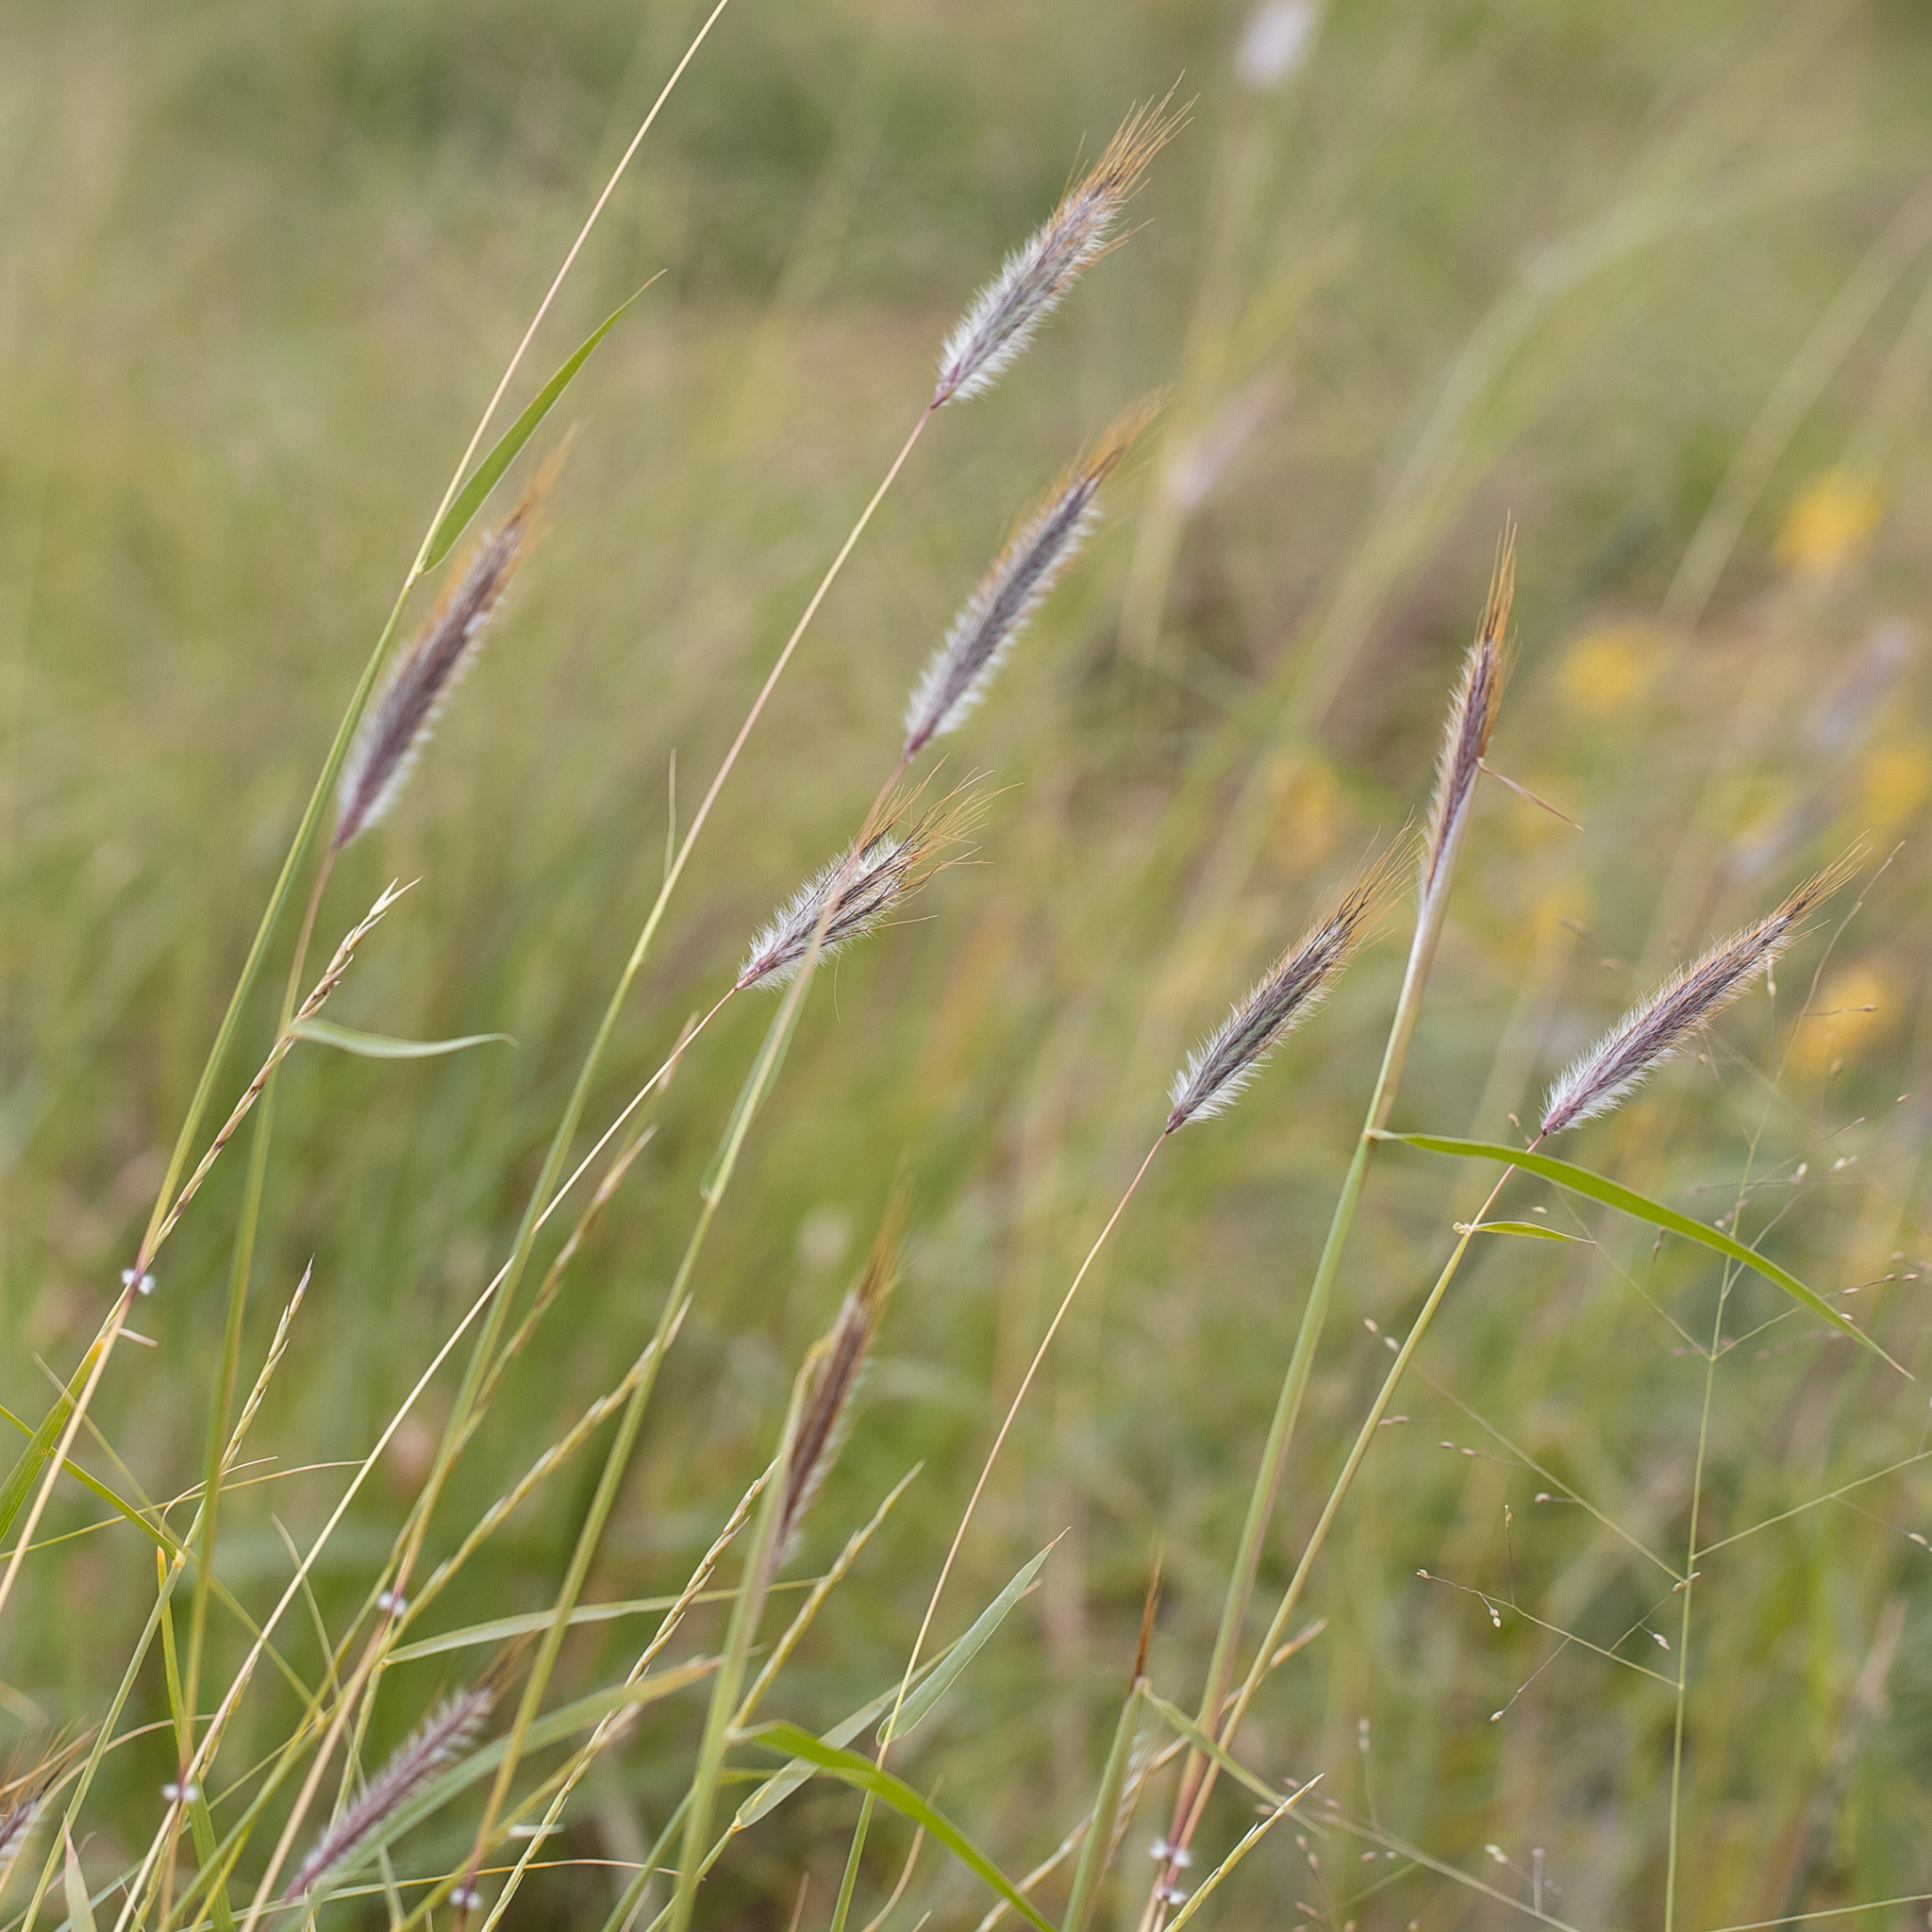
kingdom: Plantae
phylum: Tracheophyta
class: Liliopsida
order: Poales
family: Poaceae
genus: Dichanthium
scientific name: Dichanthium sericeum
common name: Silky bluestem
